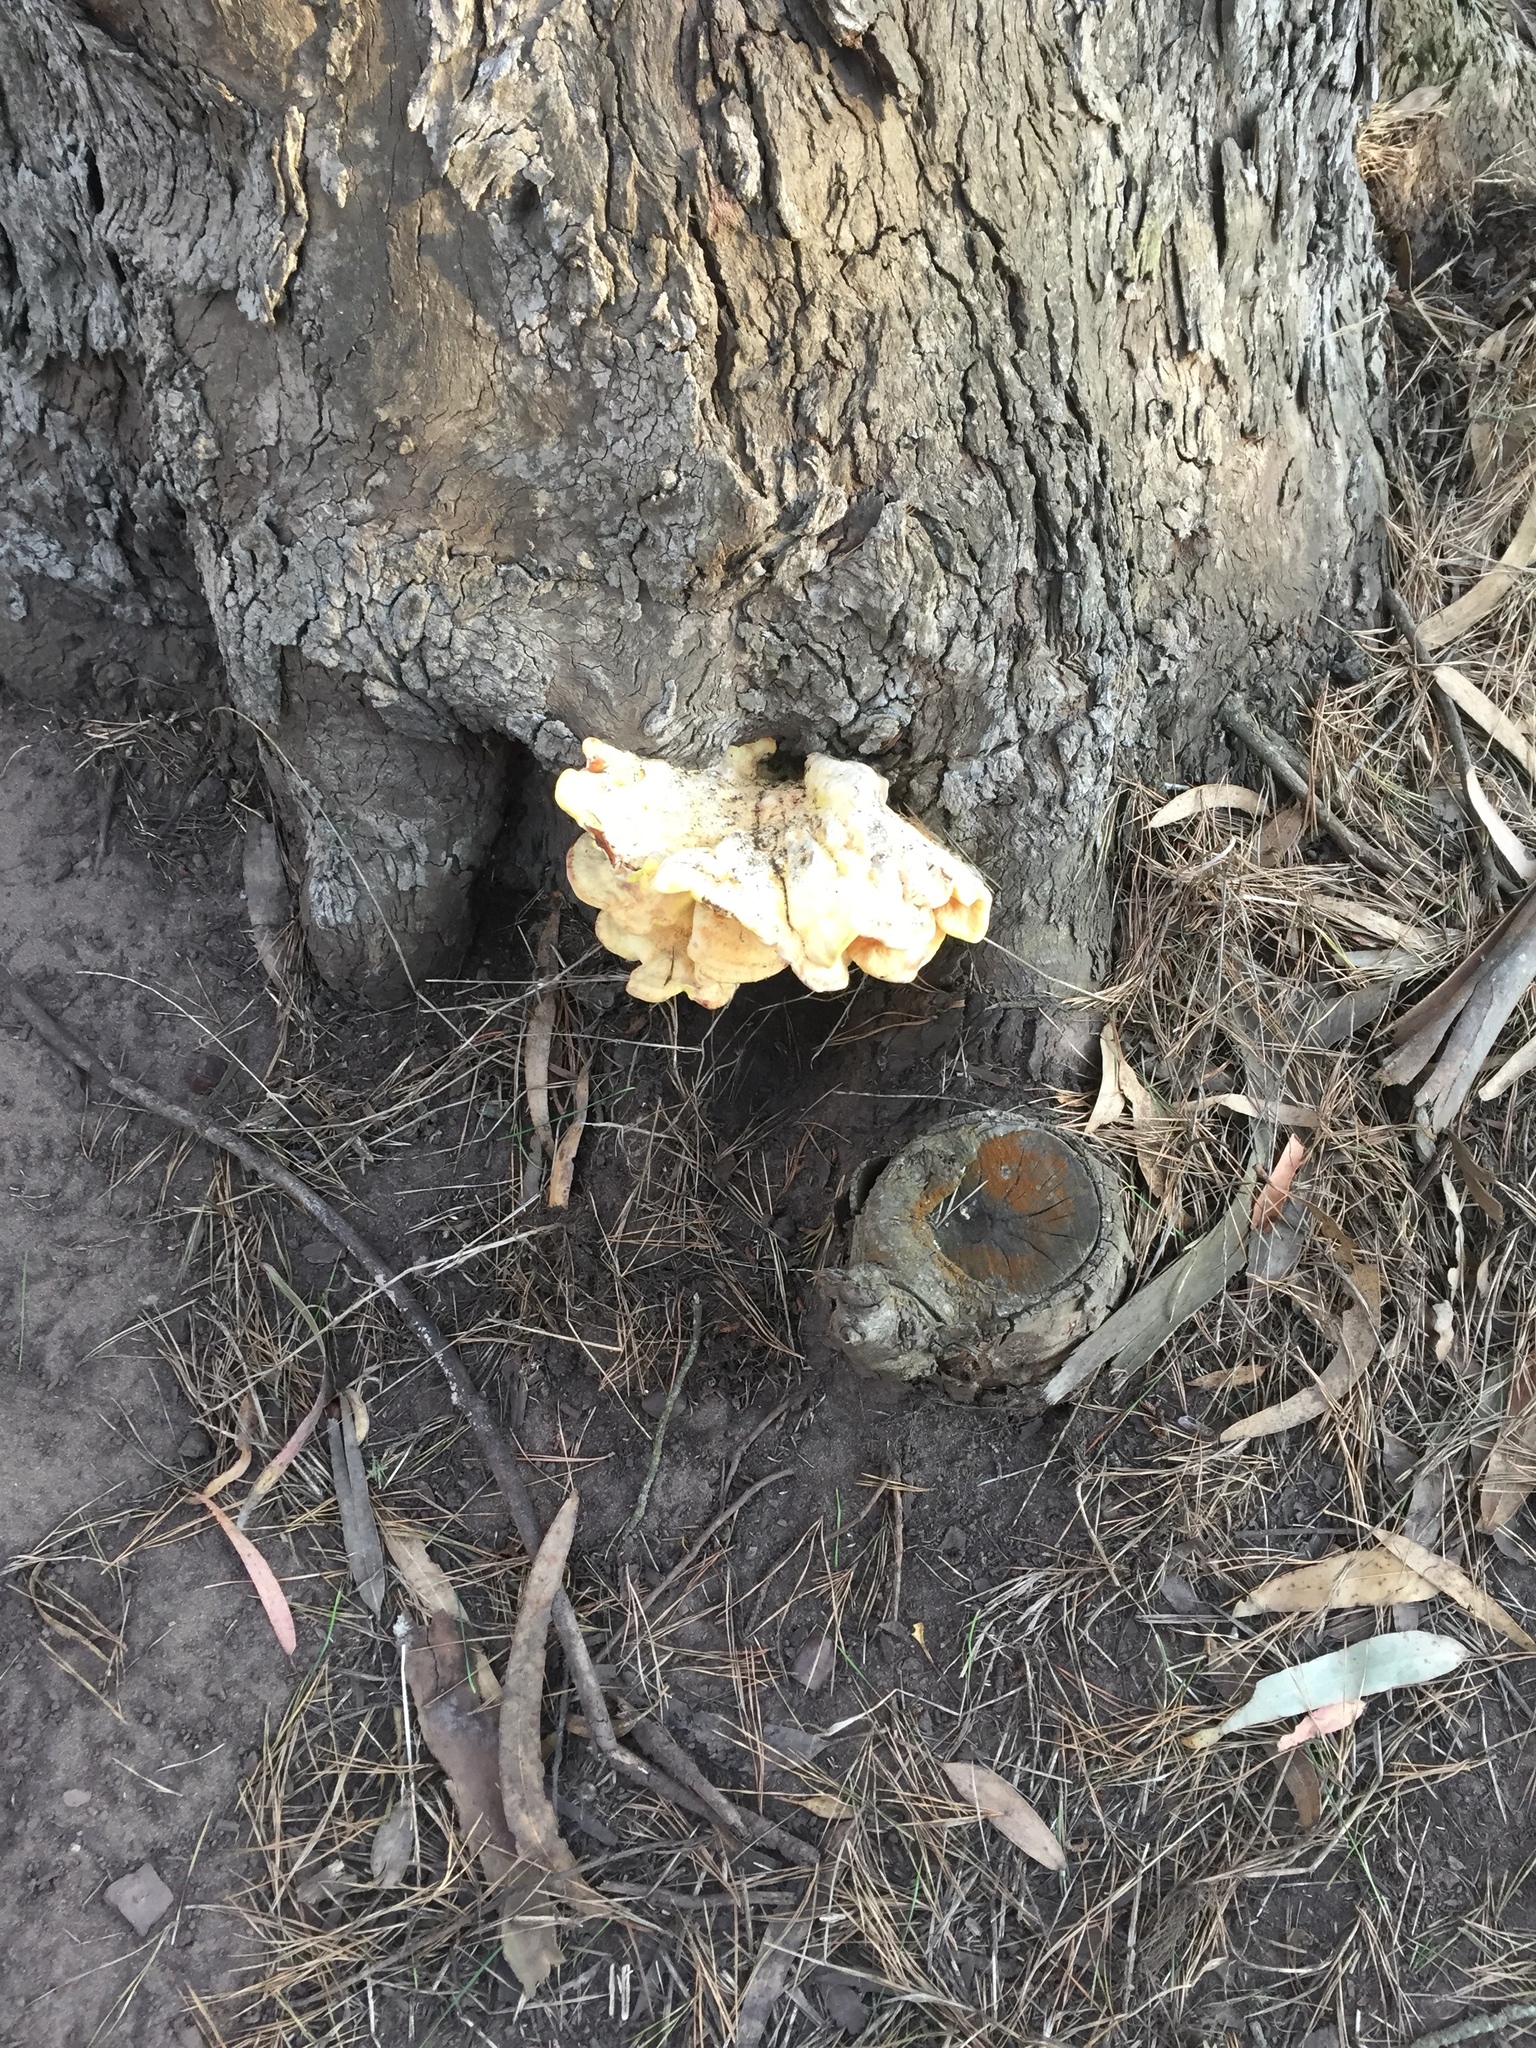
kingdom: Fungi
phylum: Basidiomycota
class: Agaricomycetes
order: Polyporales
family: Laetiporaceae
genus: Laetiporus
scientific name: Laetiporus gilbertsonii
